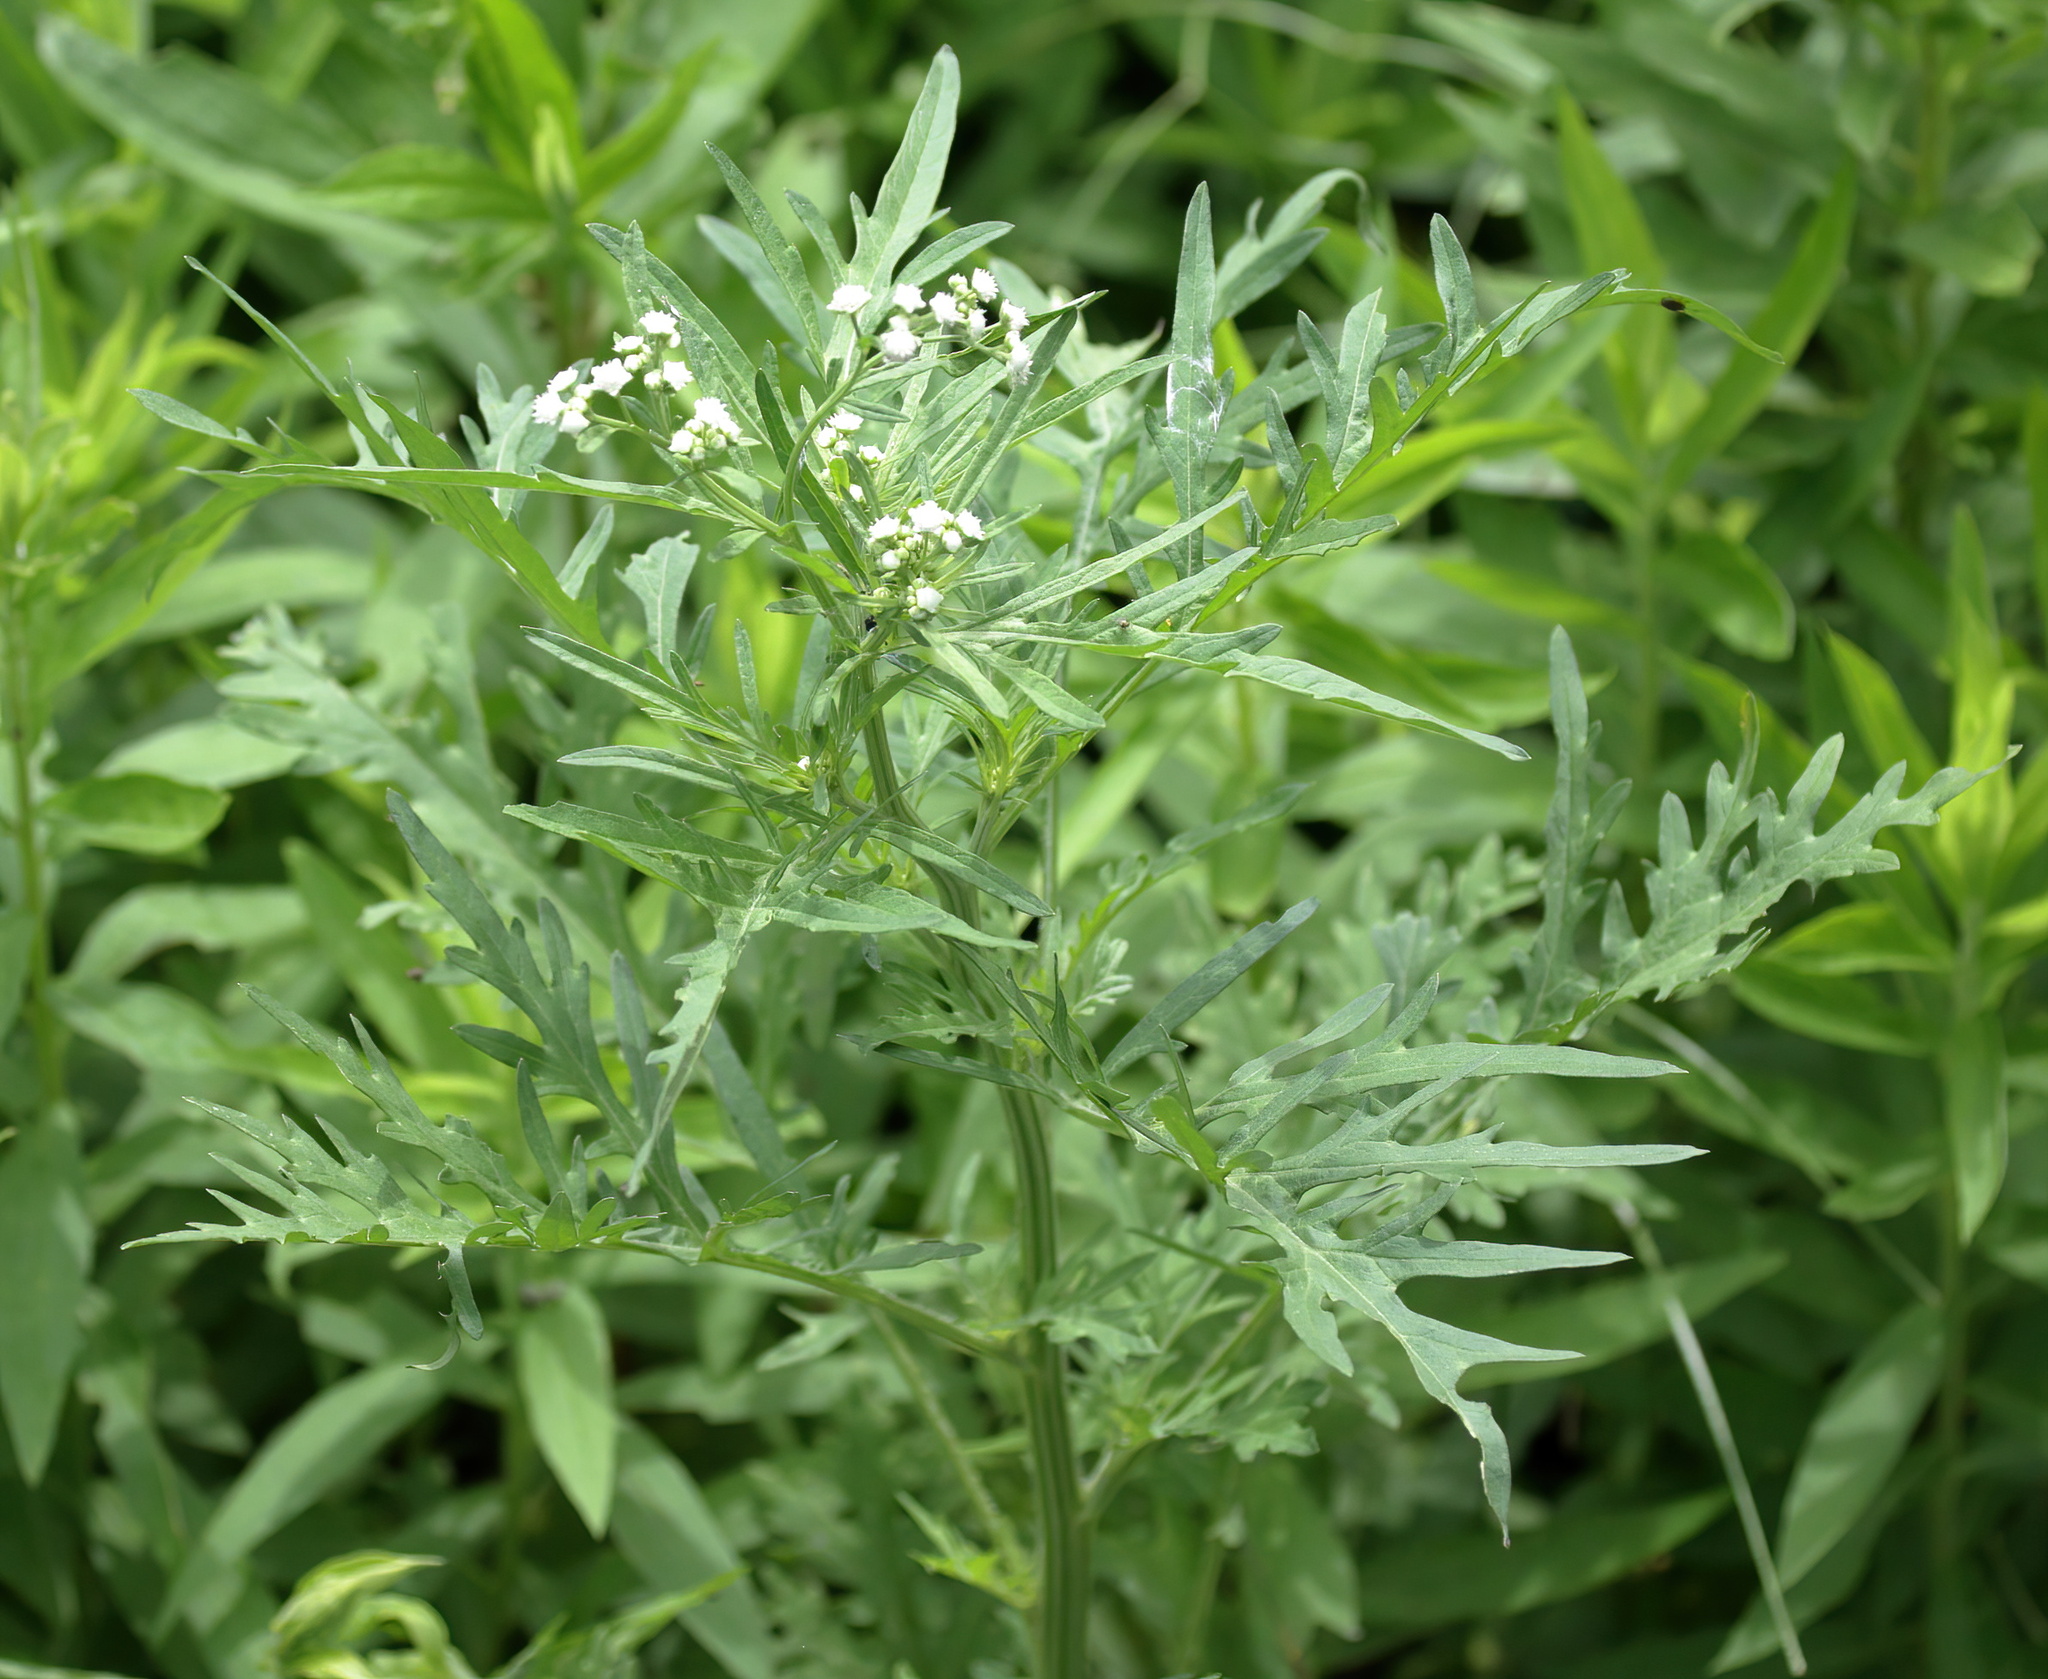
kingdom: Plantae
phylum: Tracheophyta
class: Magnoliopsida
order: Asterales
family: Asteraceae
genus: Parthenium
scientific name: Parthenium hysterophorus
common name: Santa maria feverfew
